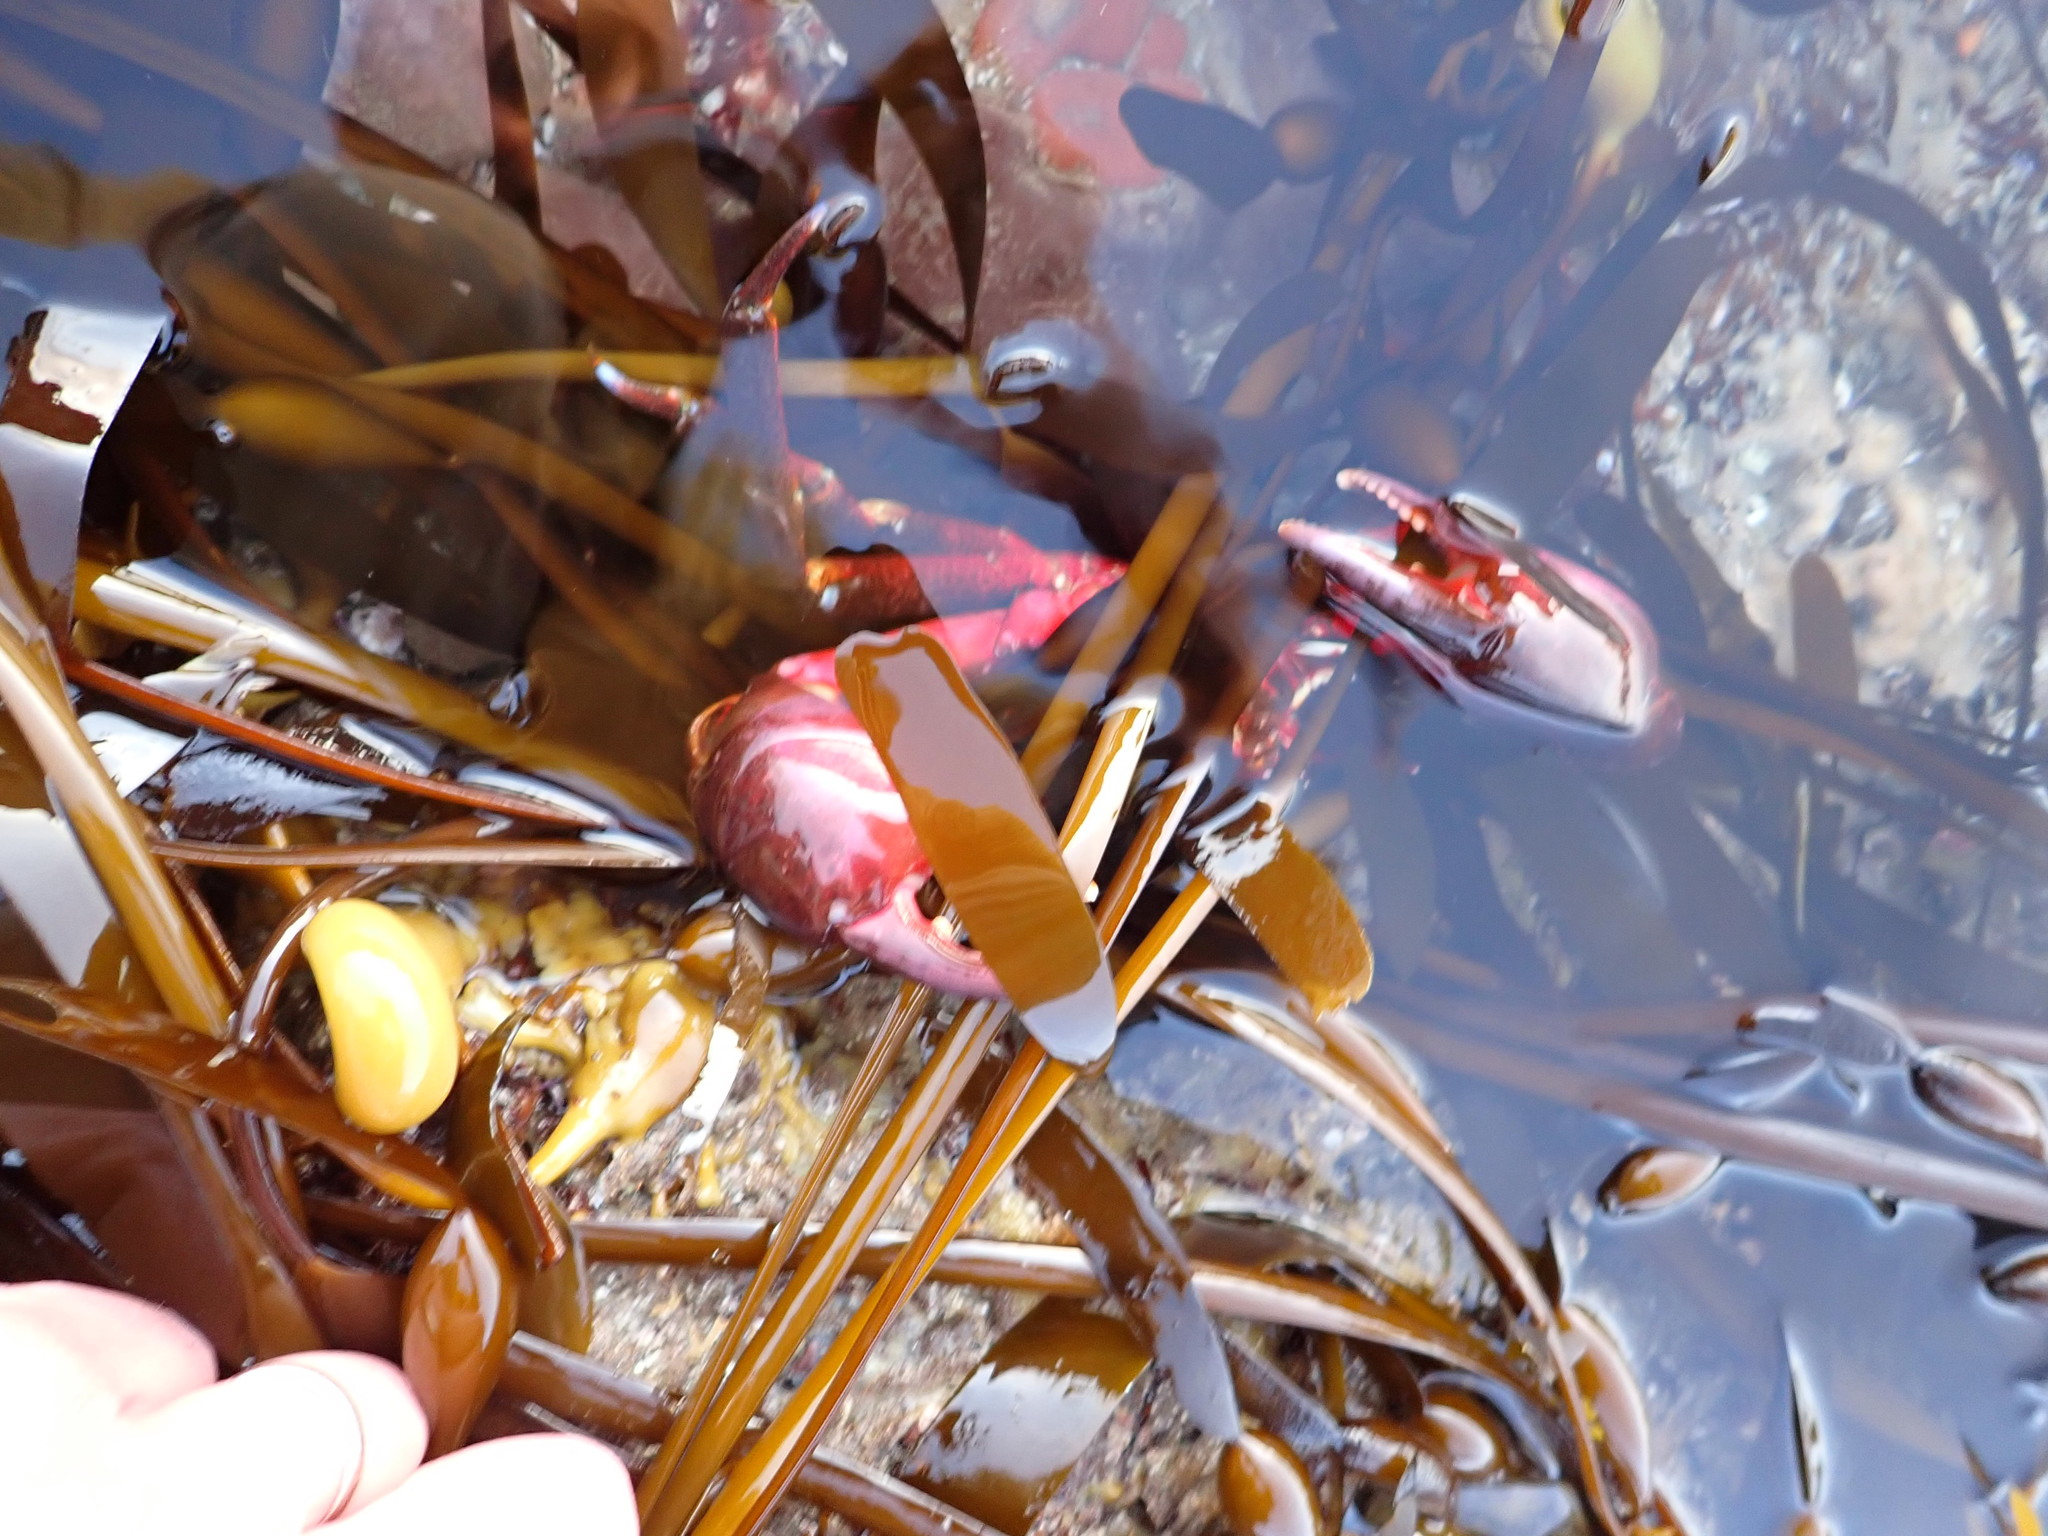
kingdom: Animalia
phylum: Arthropoda
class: Malacostraca
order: Decapoda
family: Epialtidae
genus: Pugettia
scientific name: Pugettia producta
